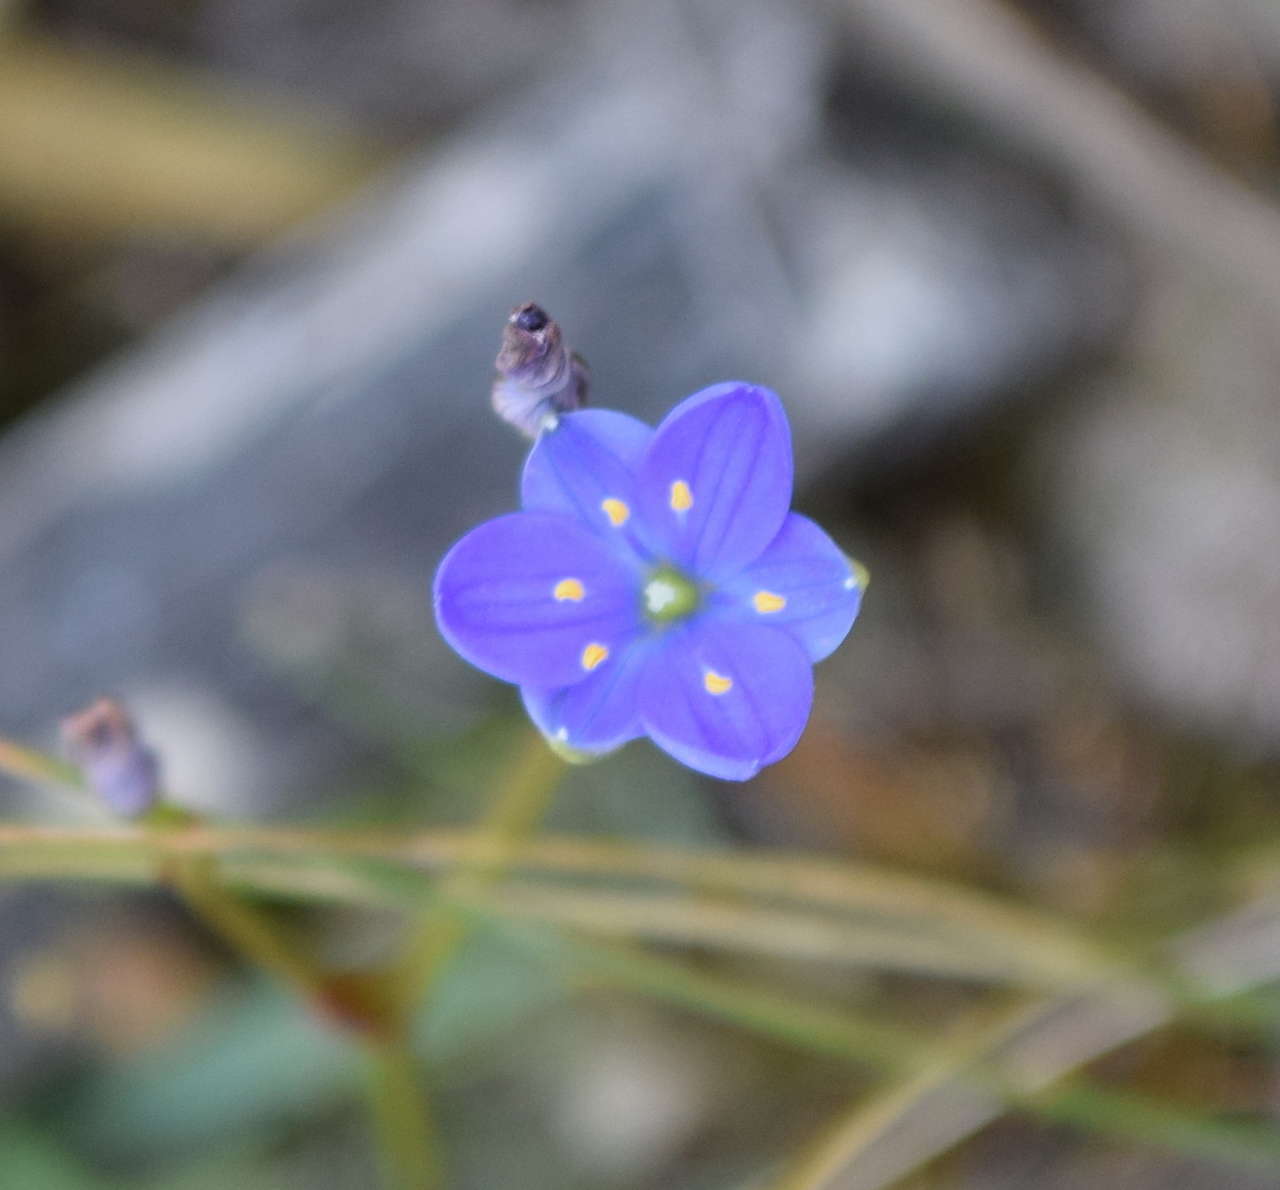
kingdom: Plantae
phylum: Tracheophyta
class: Liliopsida
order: Asparagales
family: Asphodelaceae
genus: Chamaescilla
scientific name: Chamaescilla corymbosa
